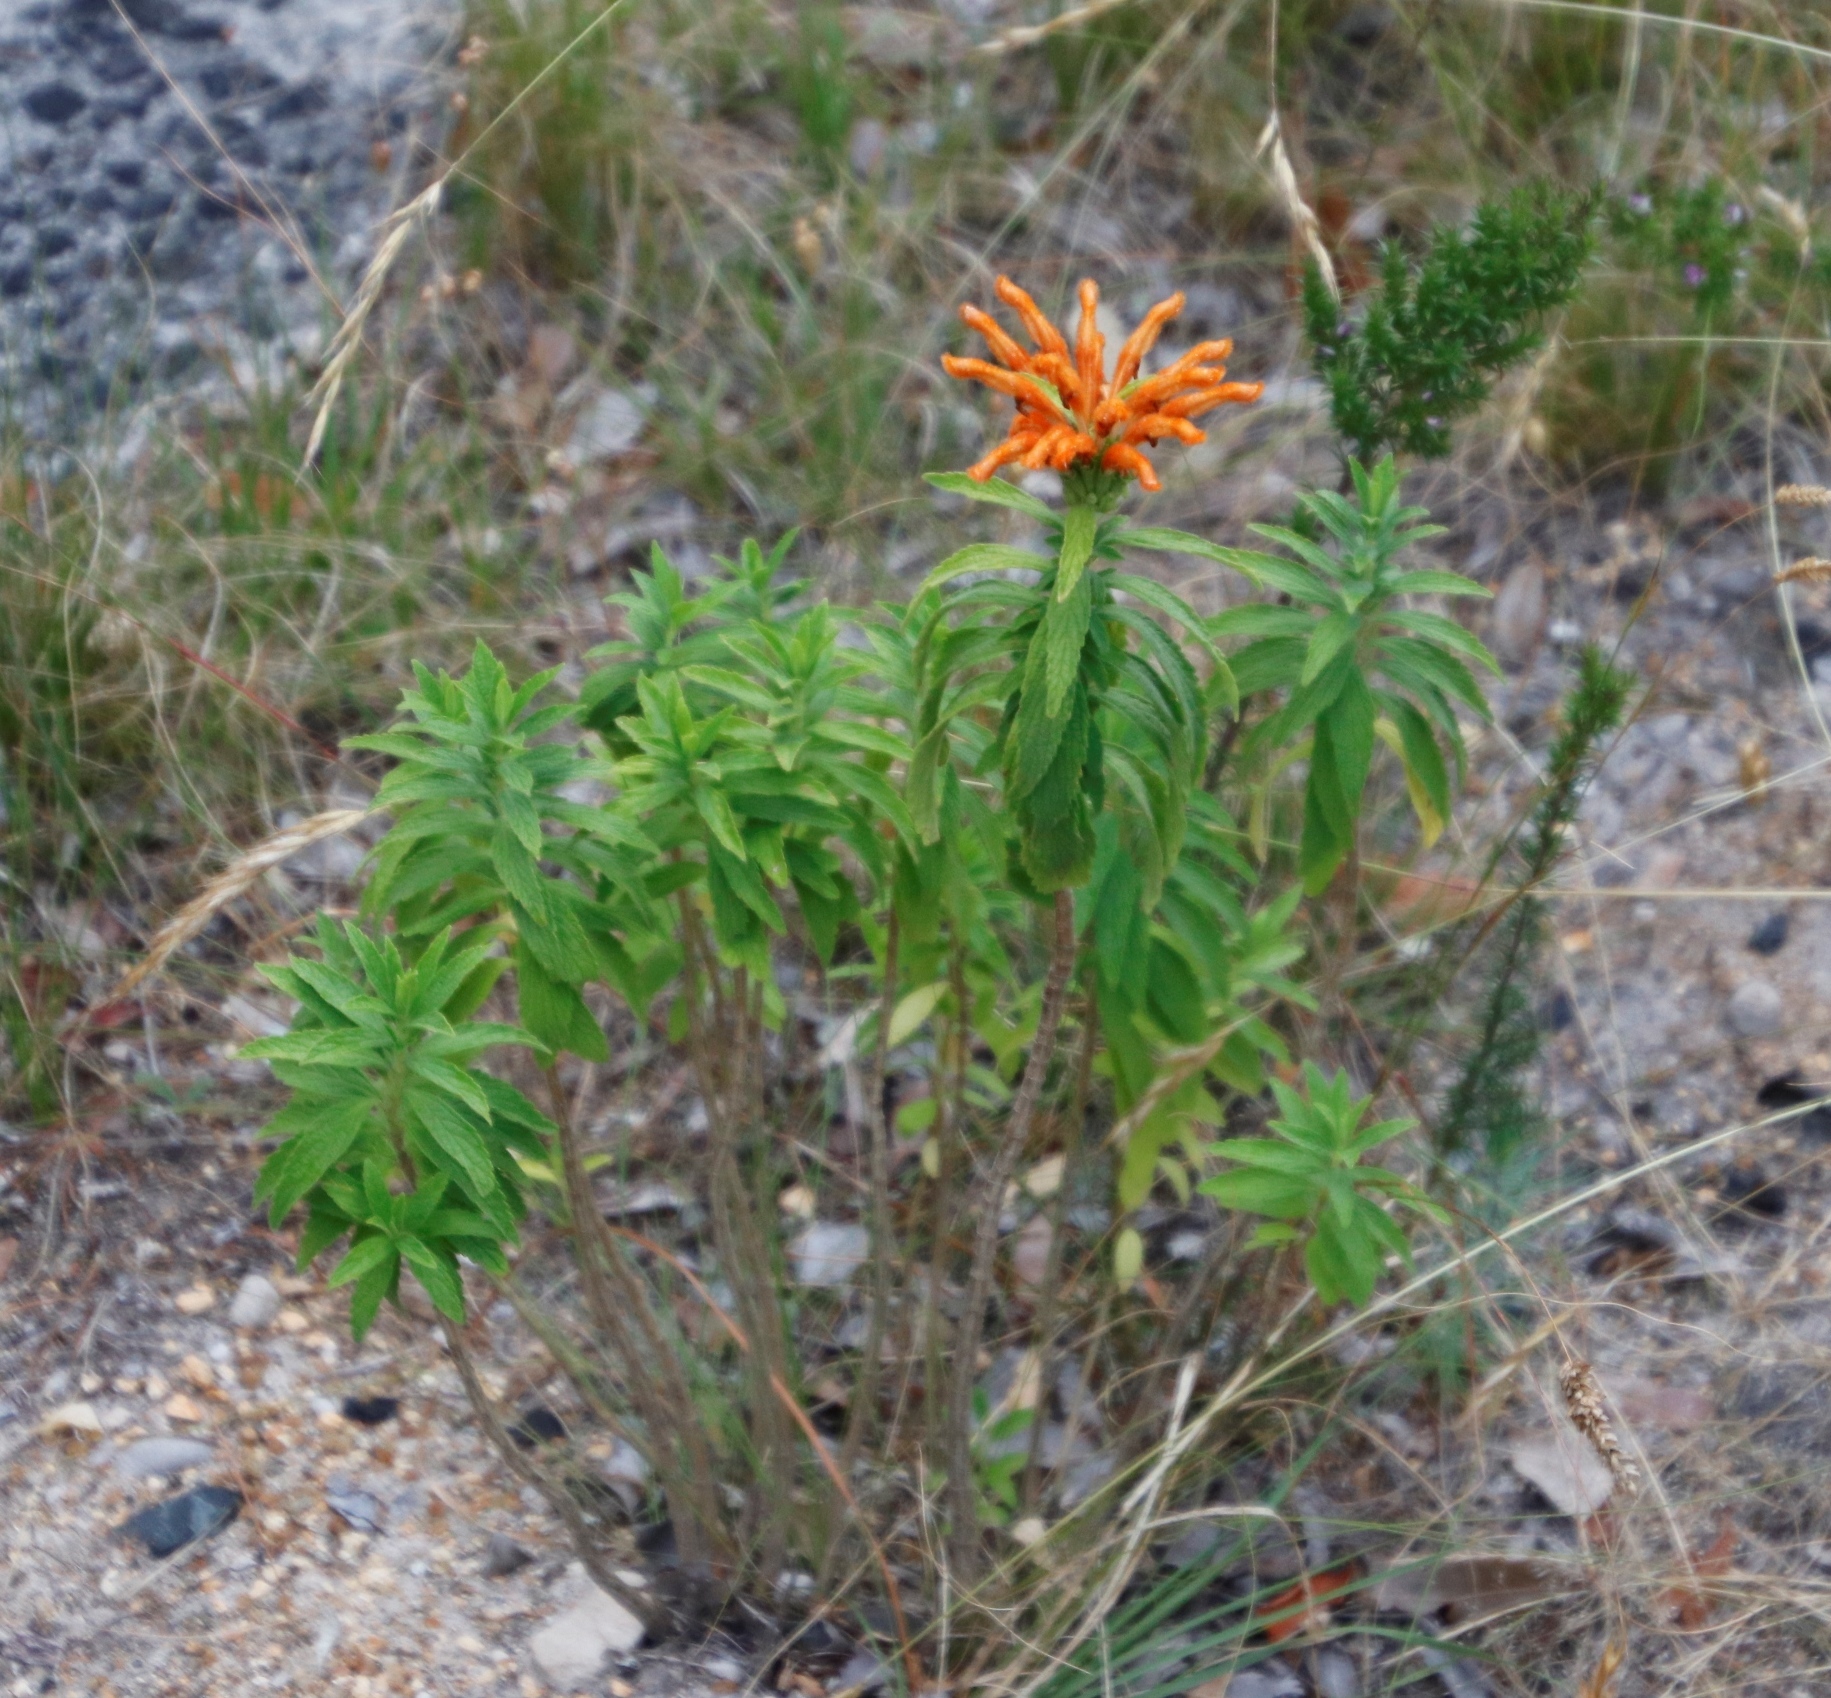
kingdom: Plantae
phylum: Tracheophyta
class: Magnoliopsida
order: Lamiales
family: Lamiaceae
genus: Leonotis
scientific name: Leonotis leonurus
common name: Lion's ear
